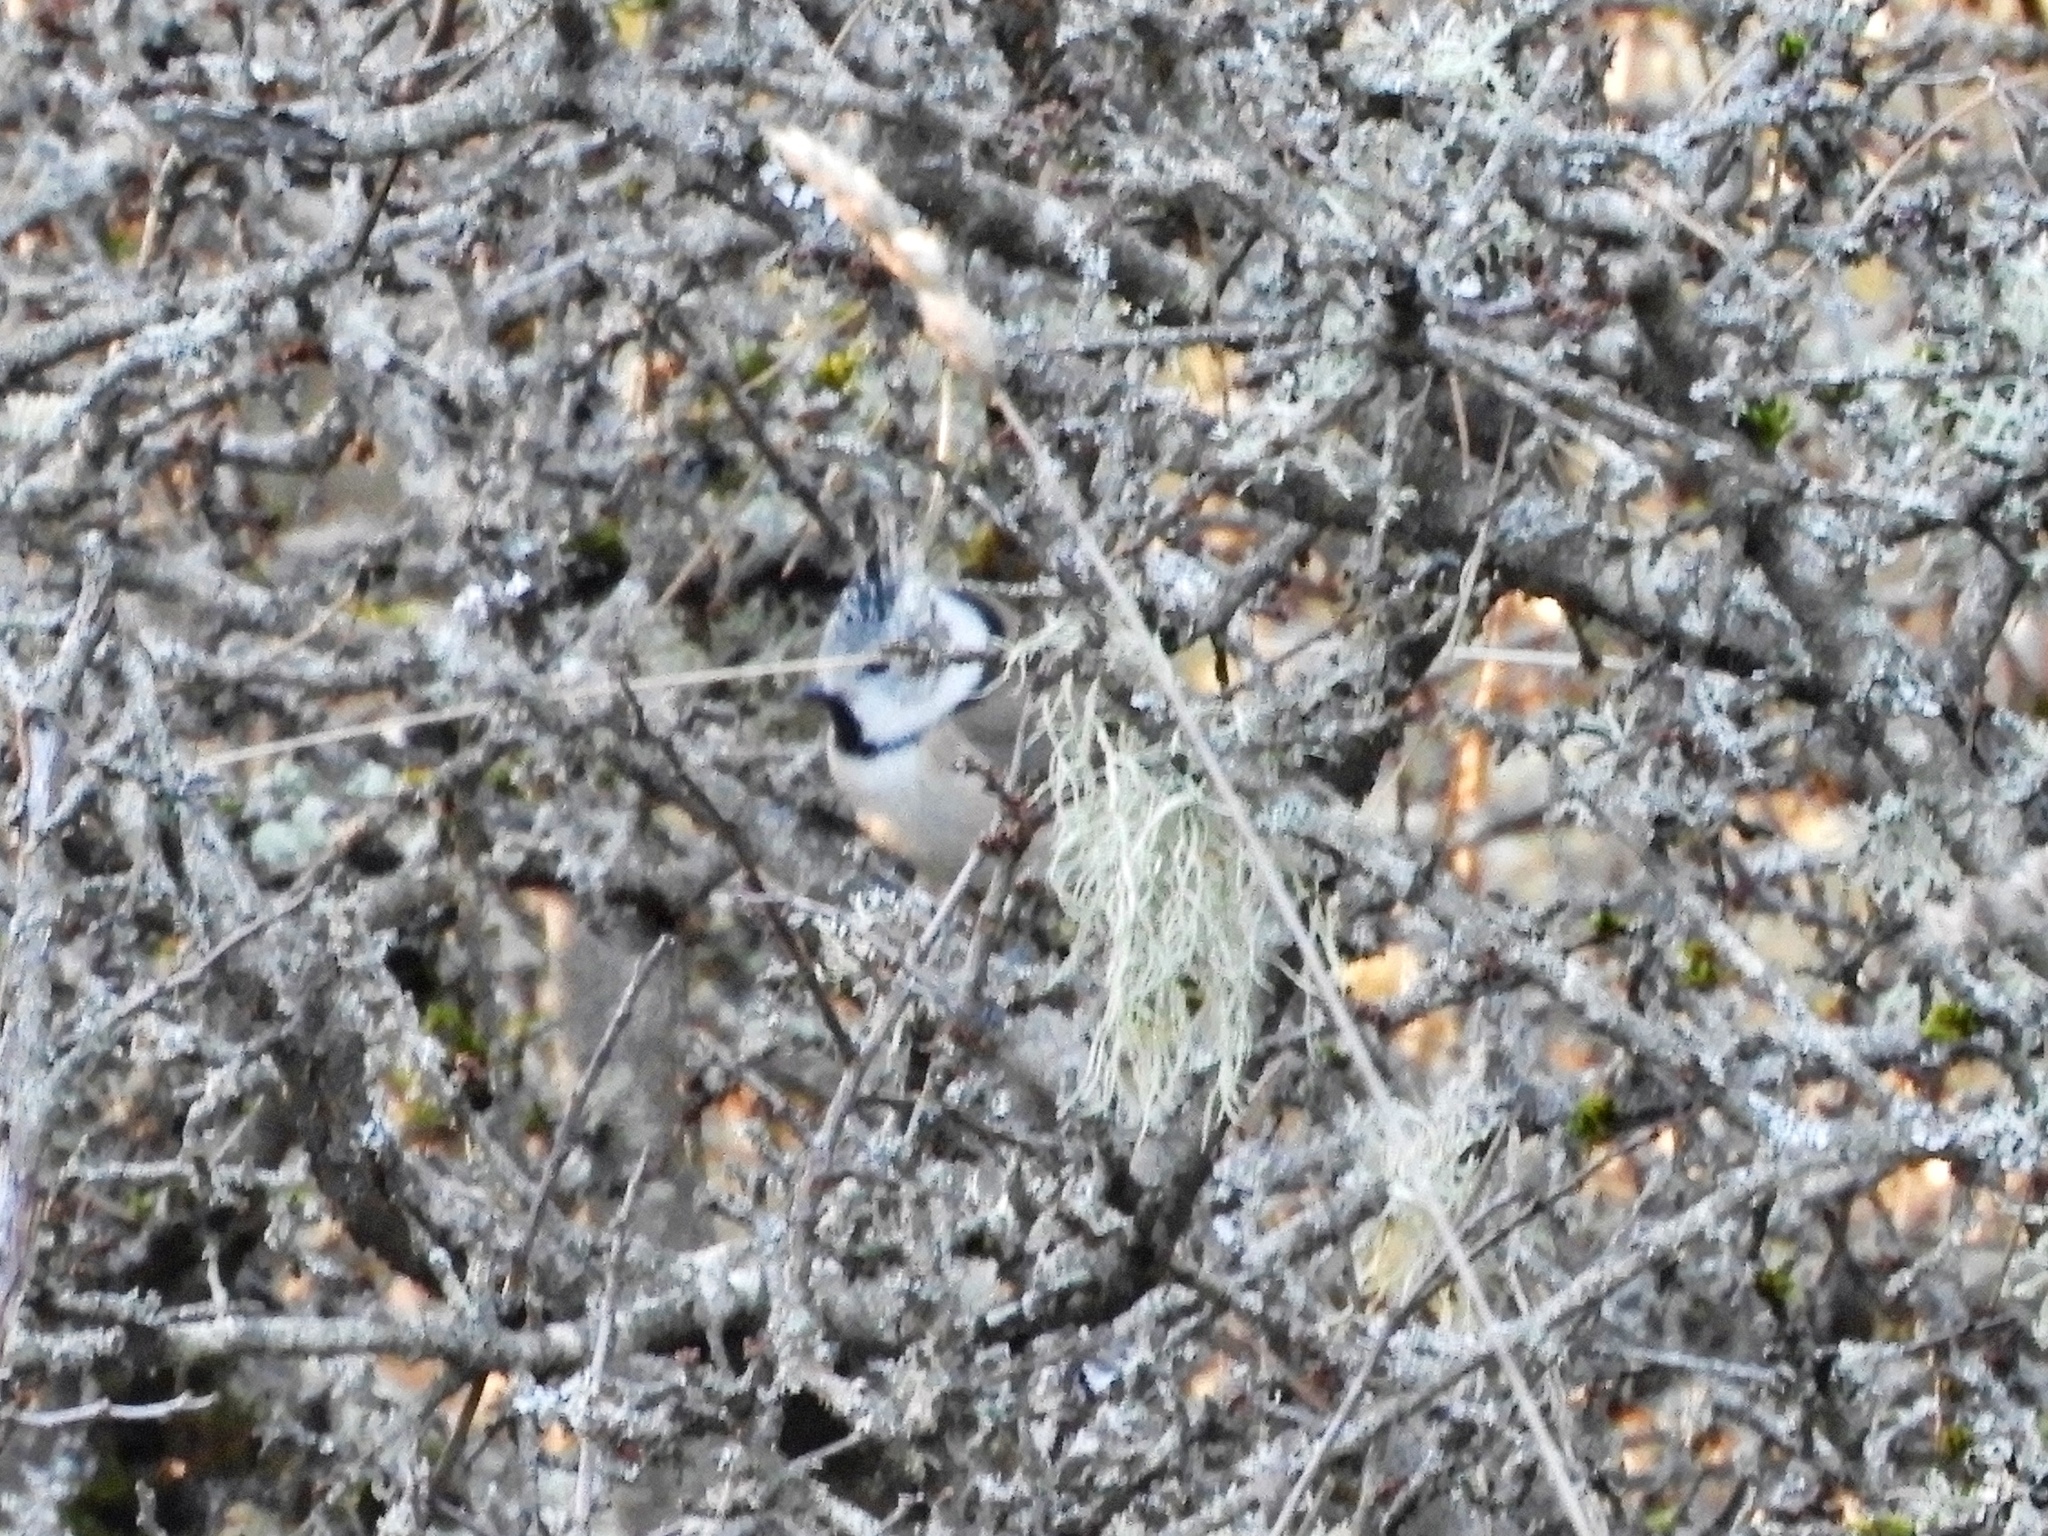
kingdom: Animalia
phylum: Chordata
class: Aves
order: Passeriformes
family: Paridae
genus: Lophophanes
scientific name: Lophophanes cristatus
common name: European crested tit
